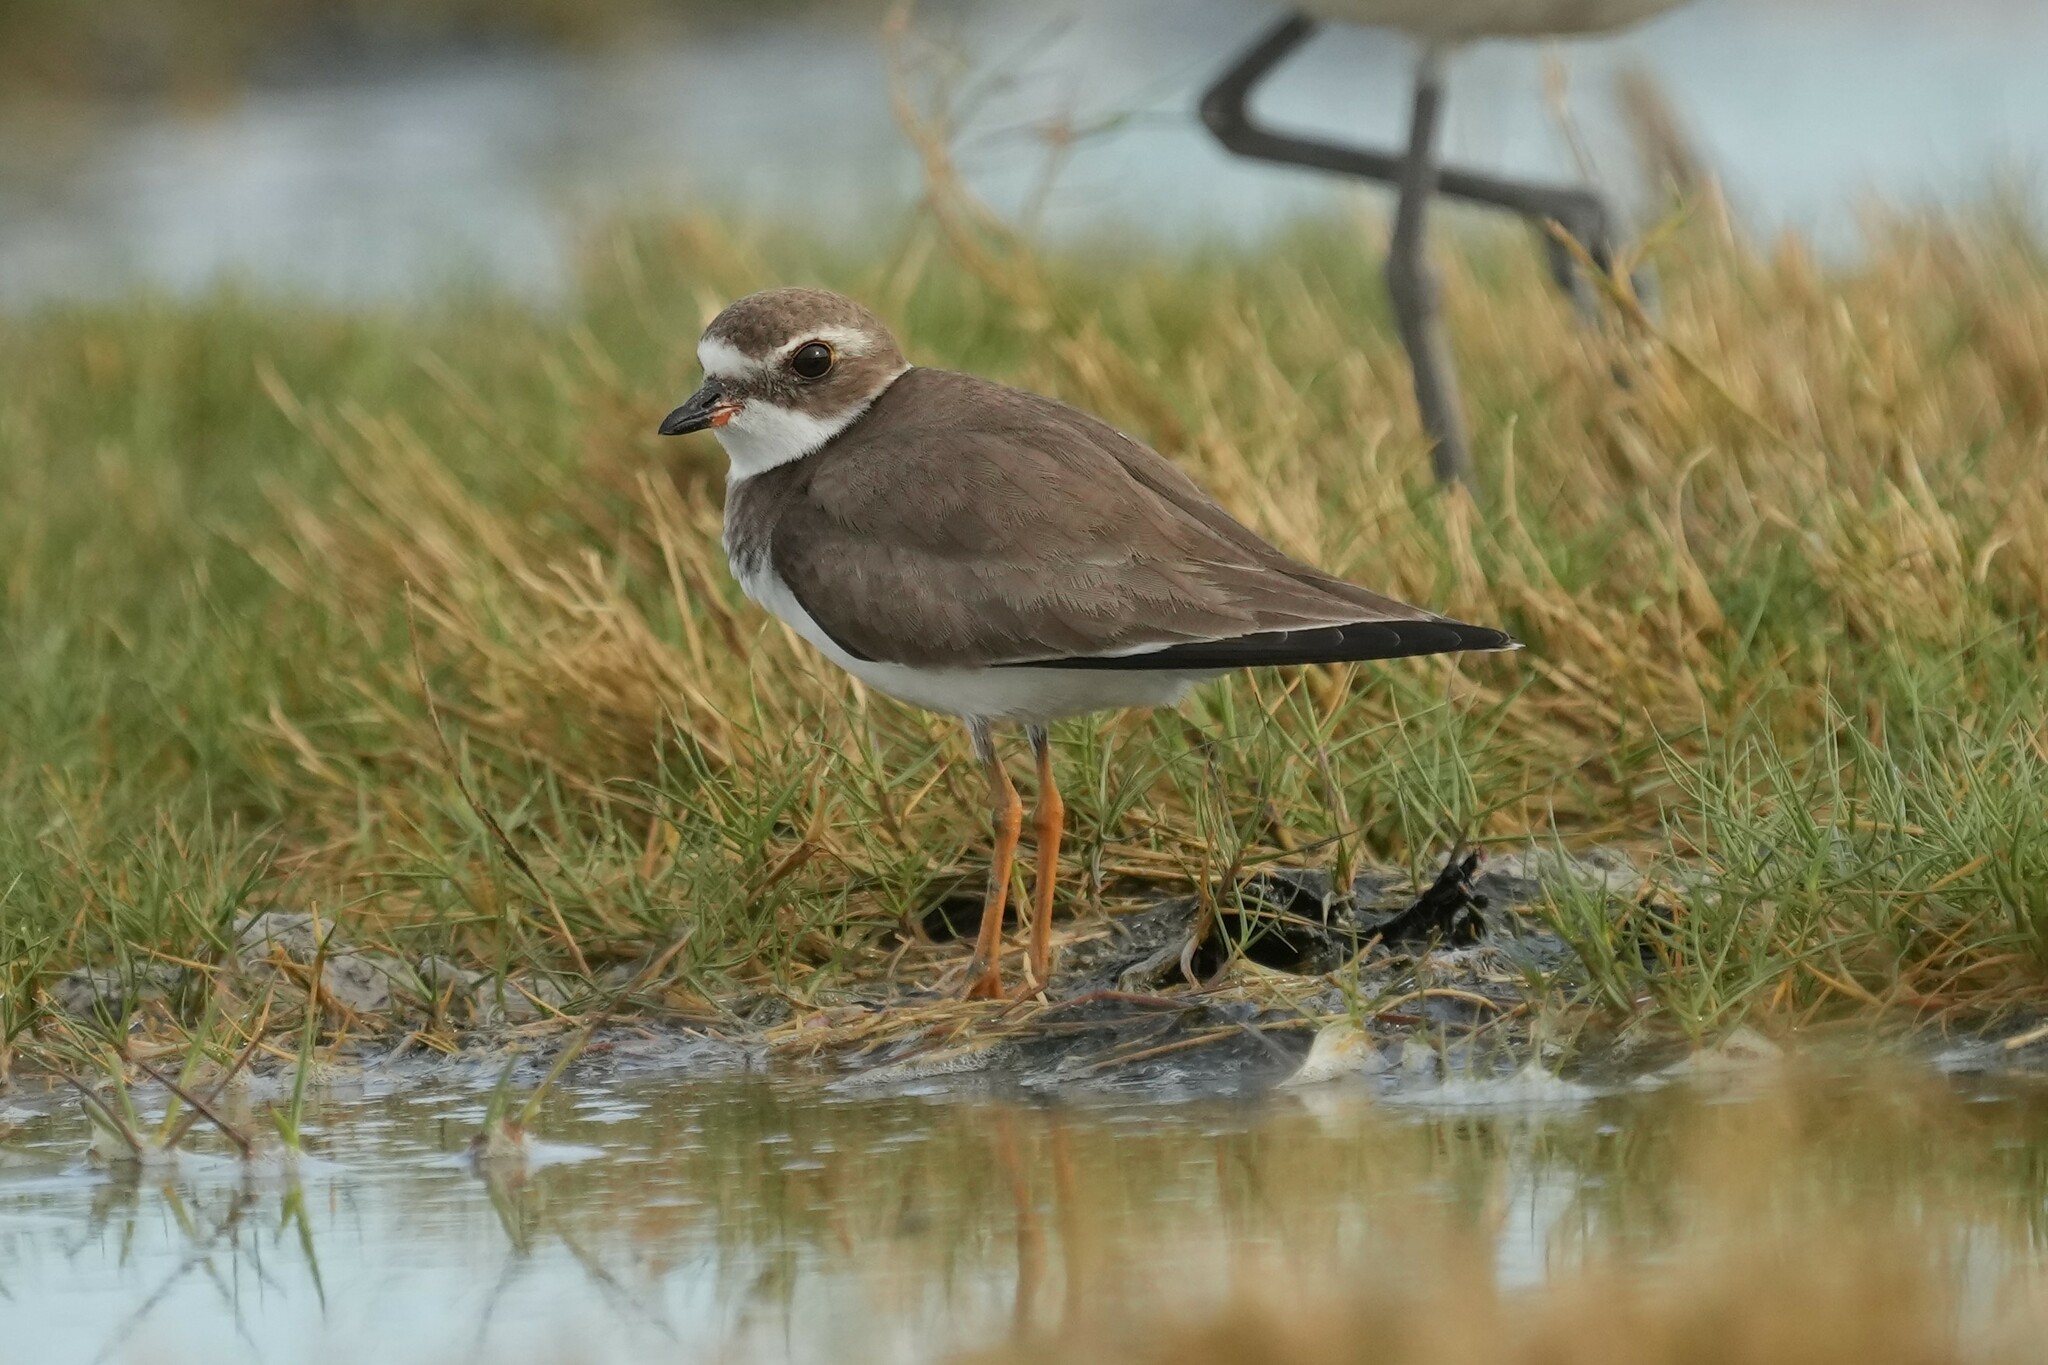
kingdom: Animalia
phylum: Chordata
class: Aves
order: Charadriiformes
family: Charadriidae
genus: Charadrius
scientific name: Charadrius semipalmatus
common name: Semipalmated plover
